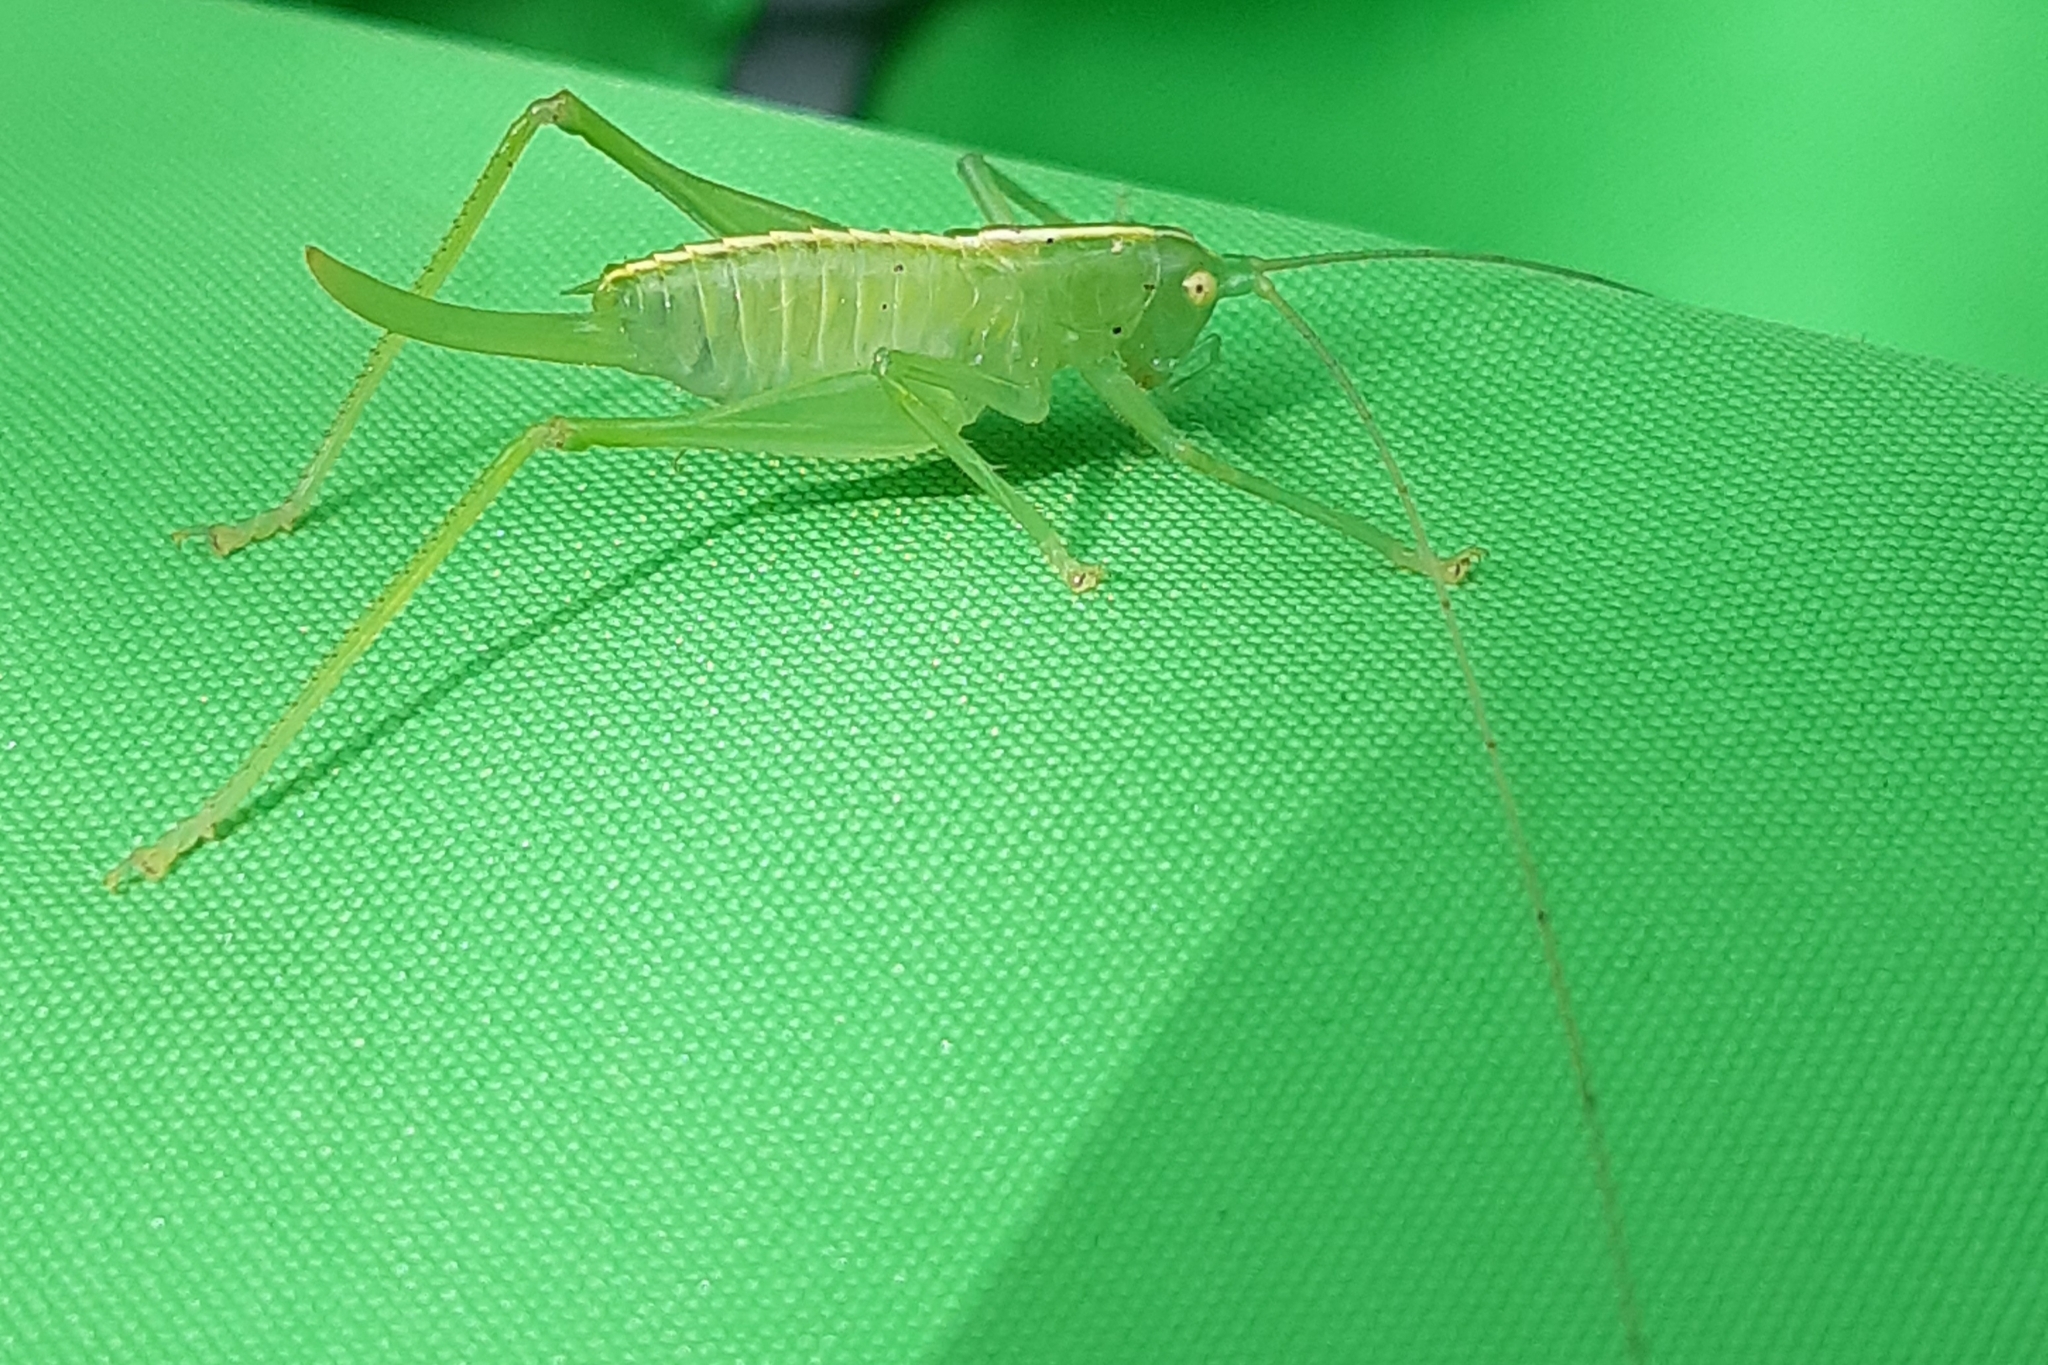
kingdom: Animalia
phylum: Arthropoda
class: Insecta
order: Orthoptera
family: Tettigoniidae
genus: Meconema
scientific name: Meconema meridionale
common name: Southern oak bush-cricket
